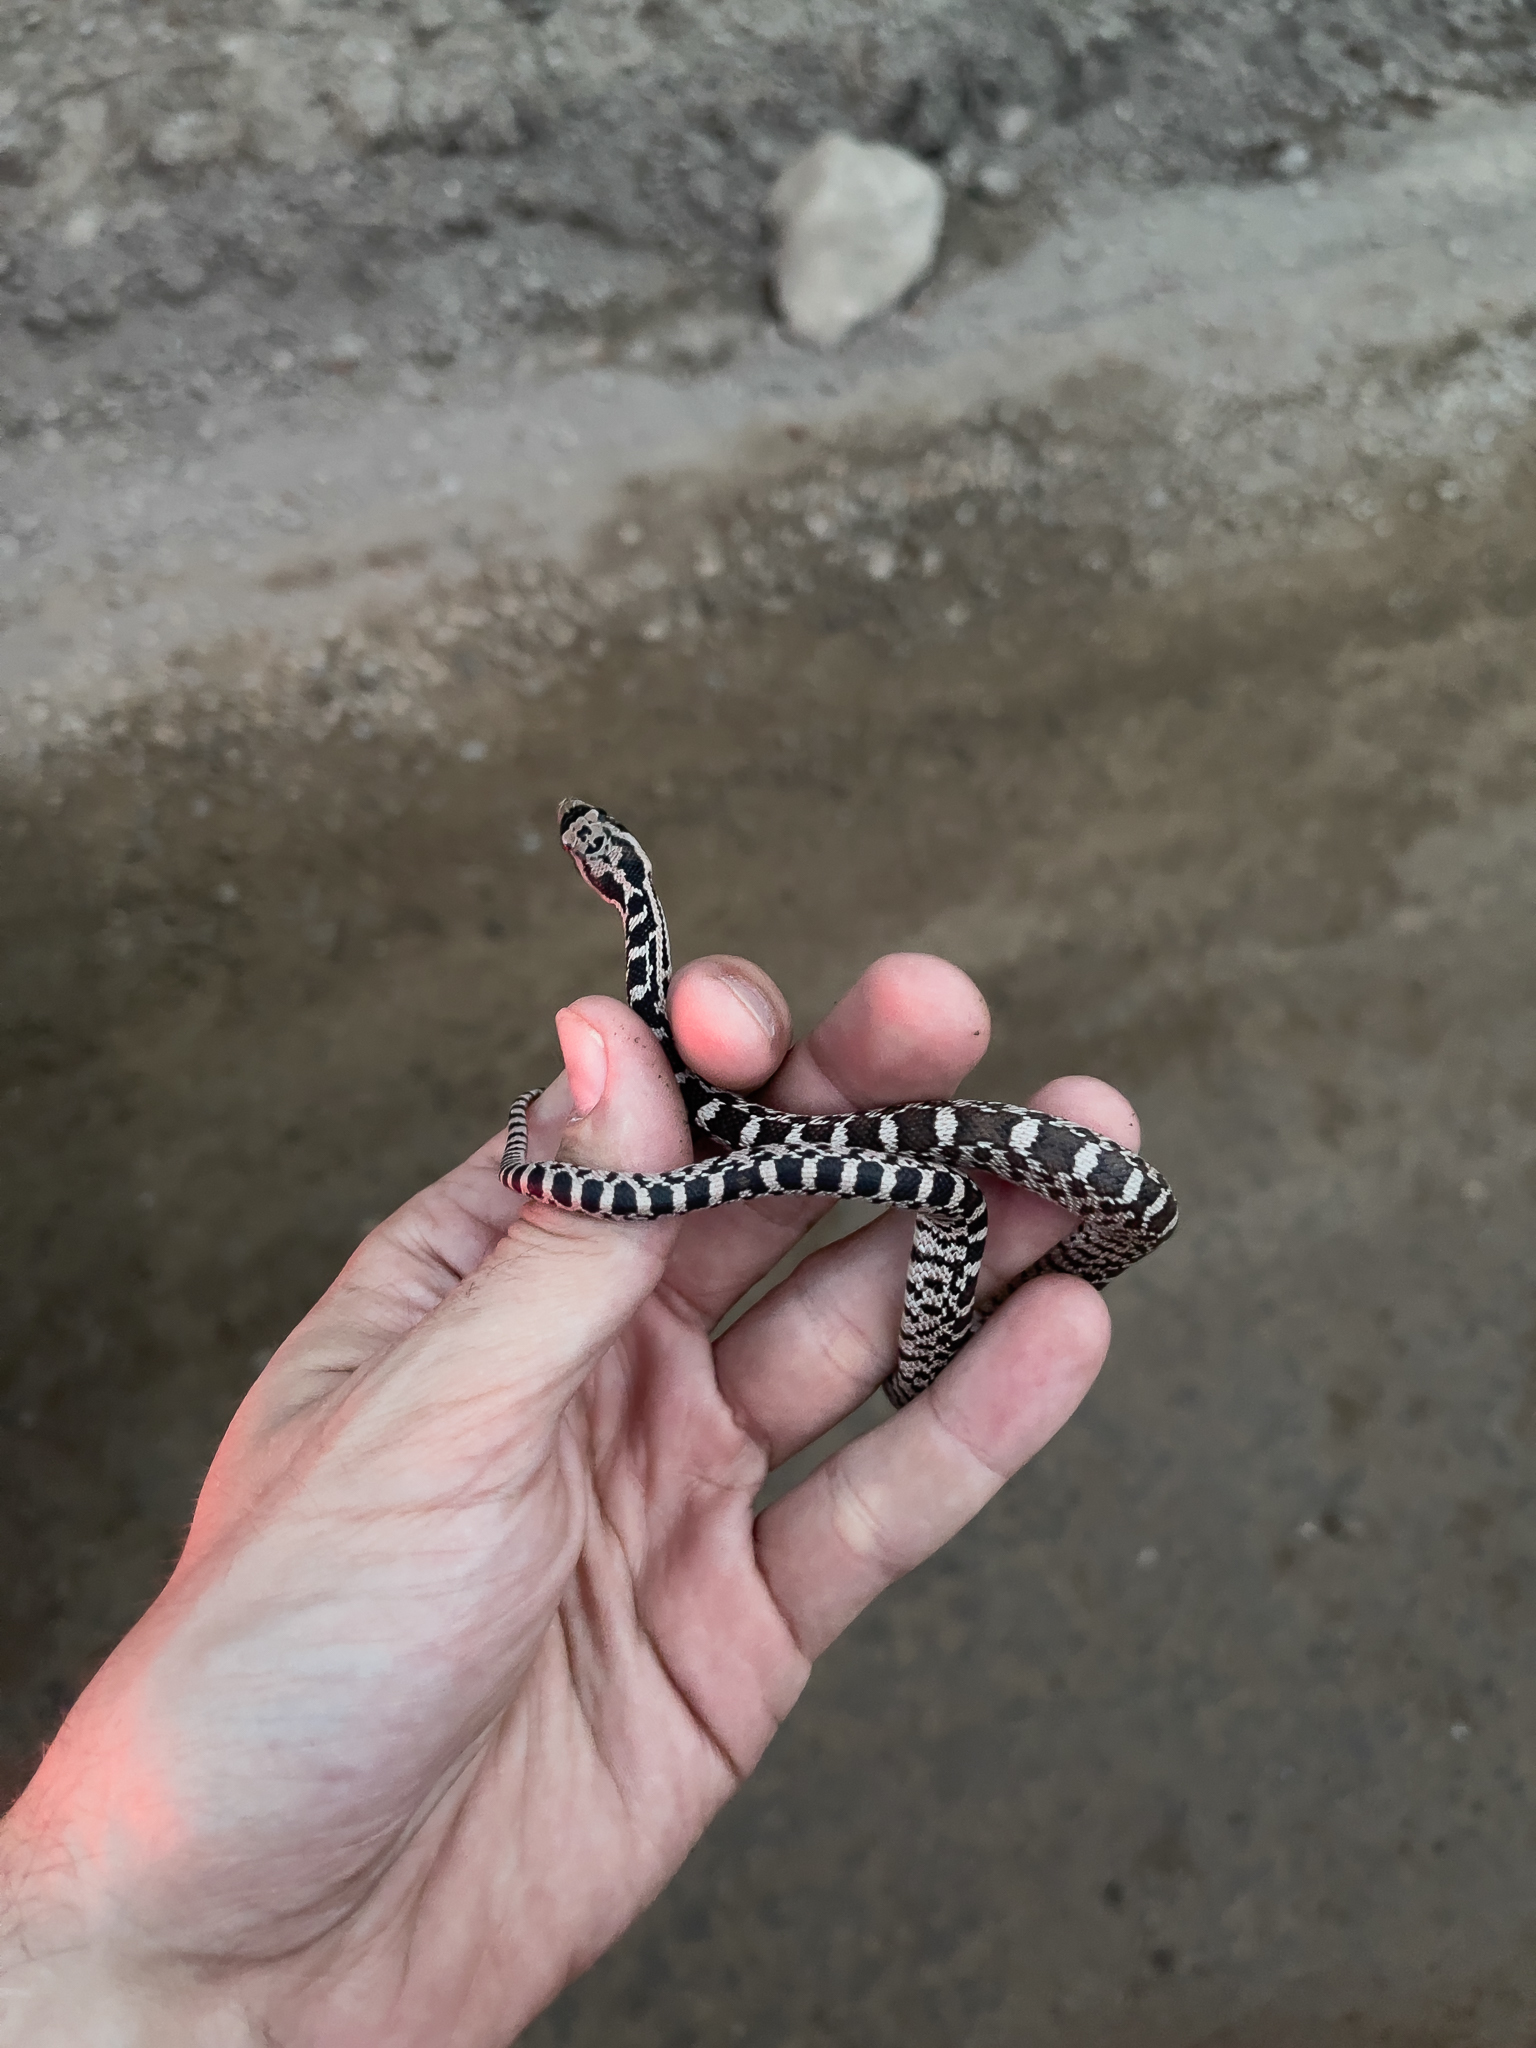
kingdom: Animalia
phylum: Chordata
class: Squamata
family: Colubridae
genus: Pituophis
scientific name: Pituophis catenifer
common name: Gopher snake
